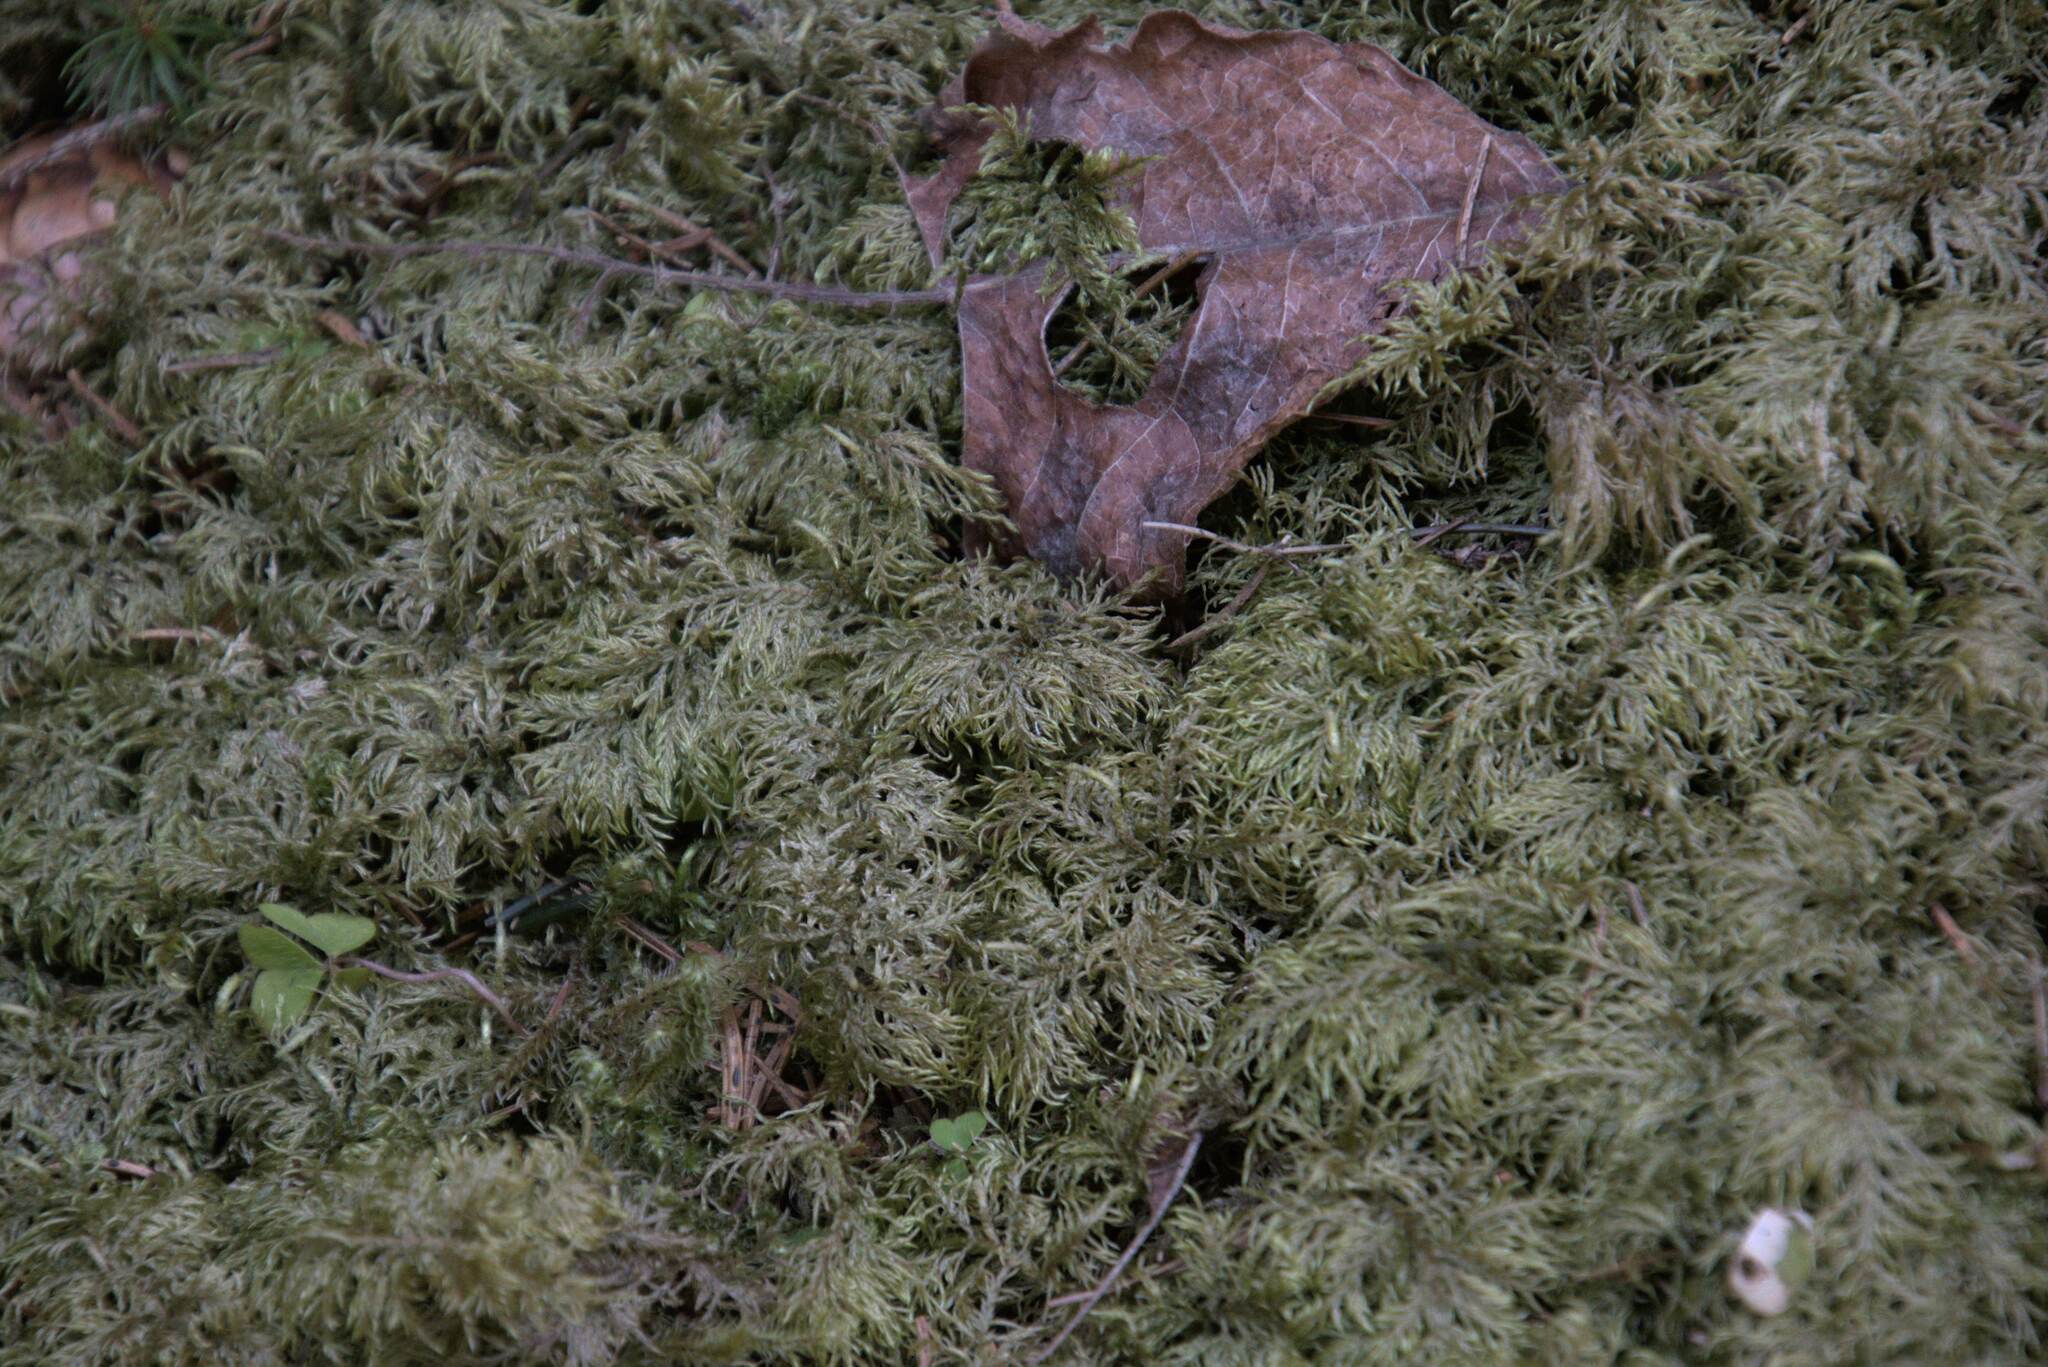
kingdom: Plantae
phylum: Bryophyta
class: Bryopsida
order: Hypnales
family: Hylocomiaceae
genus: Hylocomium
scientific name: Hylocomium splendens
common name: Stairstep moss
